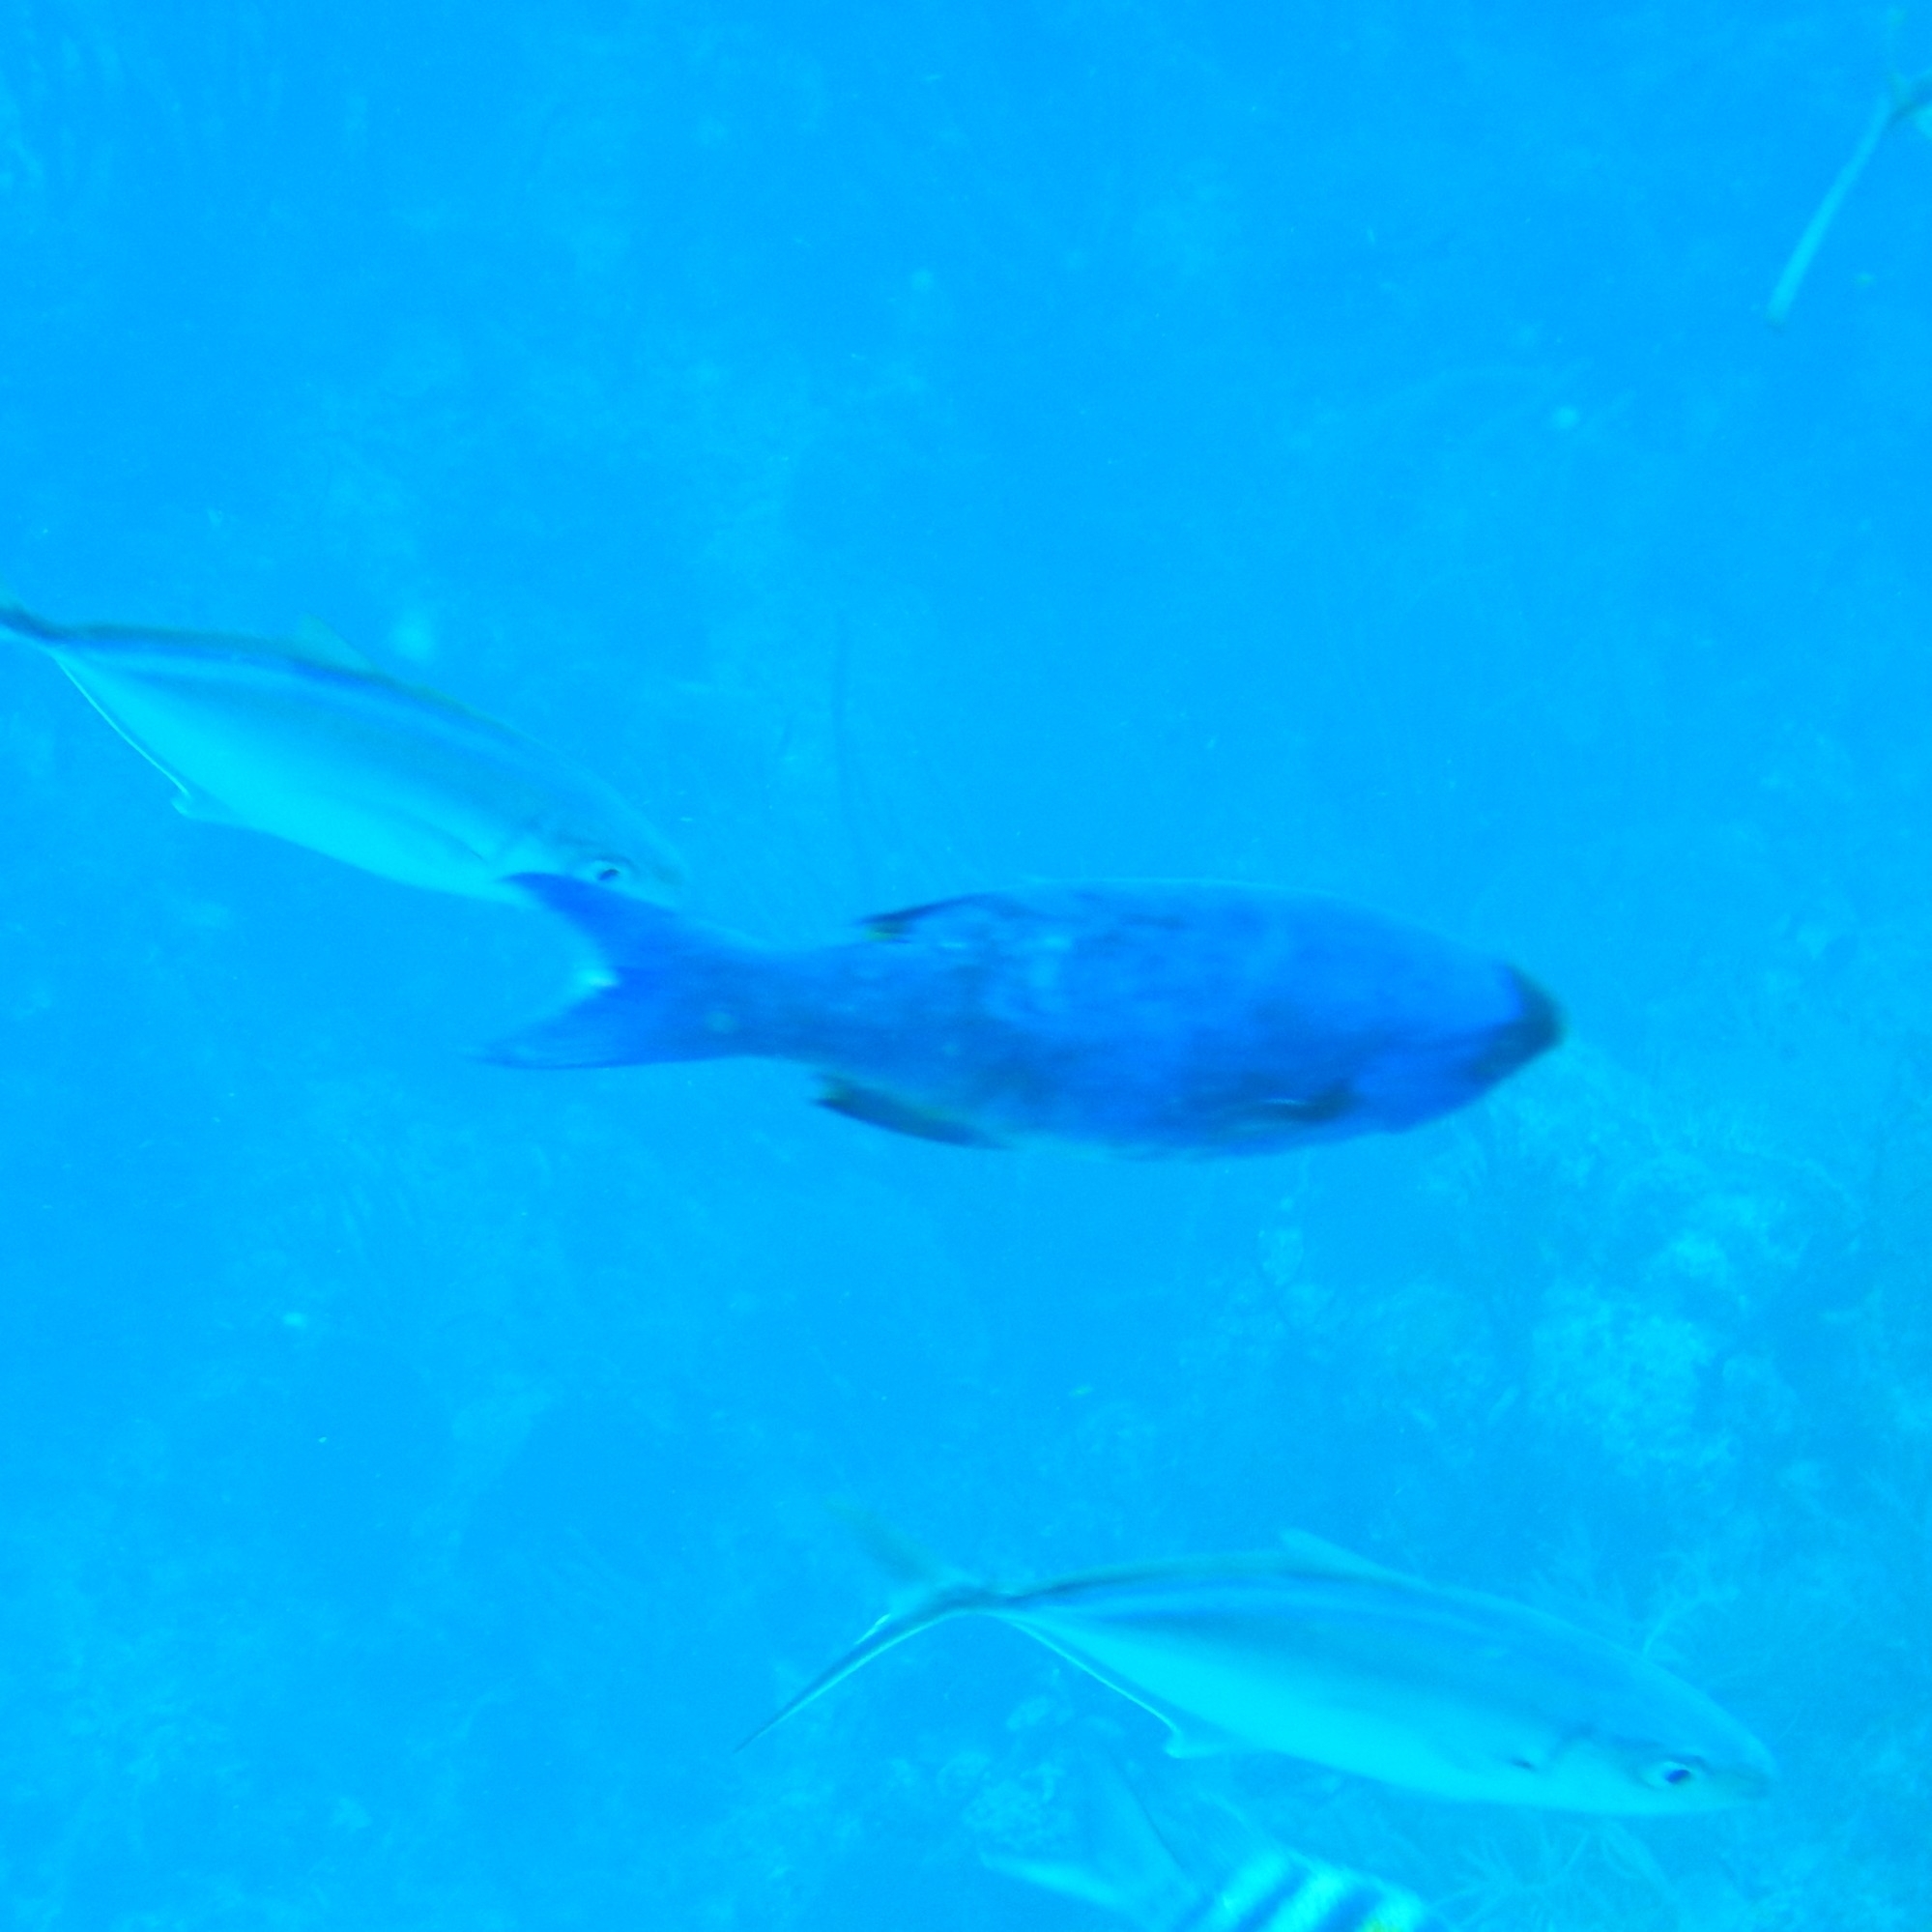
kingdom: Animalia
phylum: Chordata
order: Perciformes
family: Labridae
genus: Bodianus
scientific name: Bodianus
